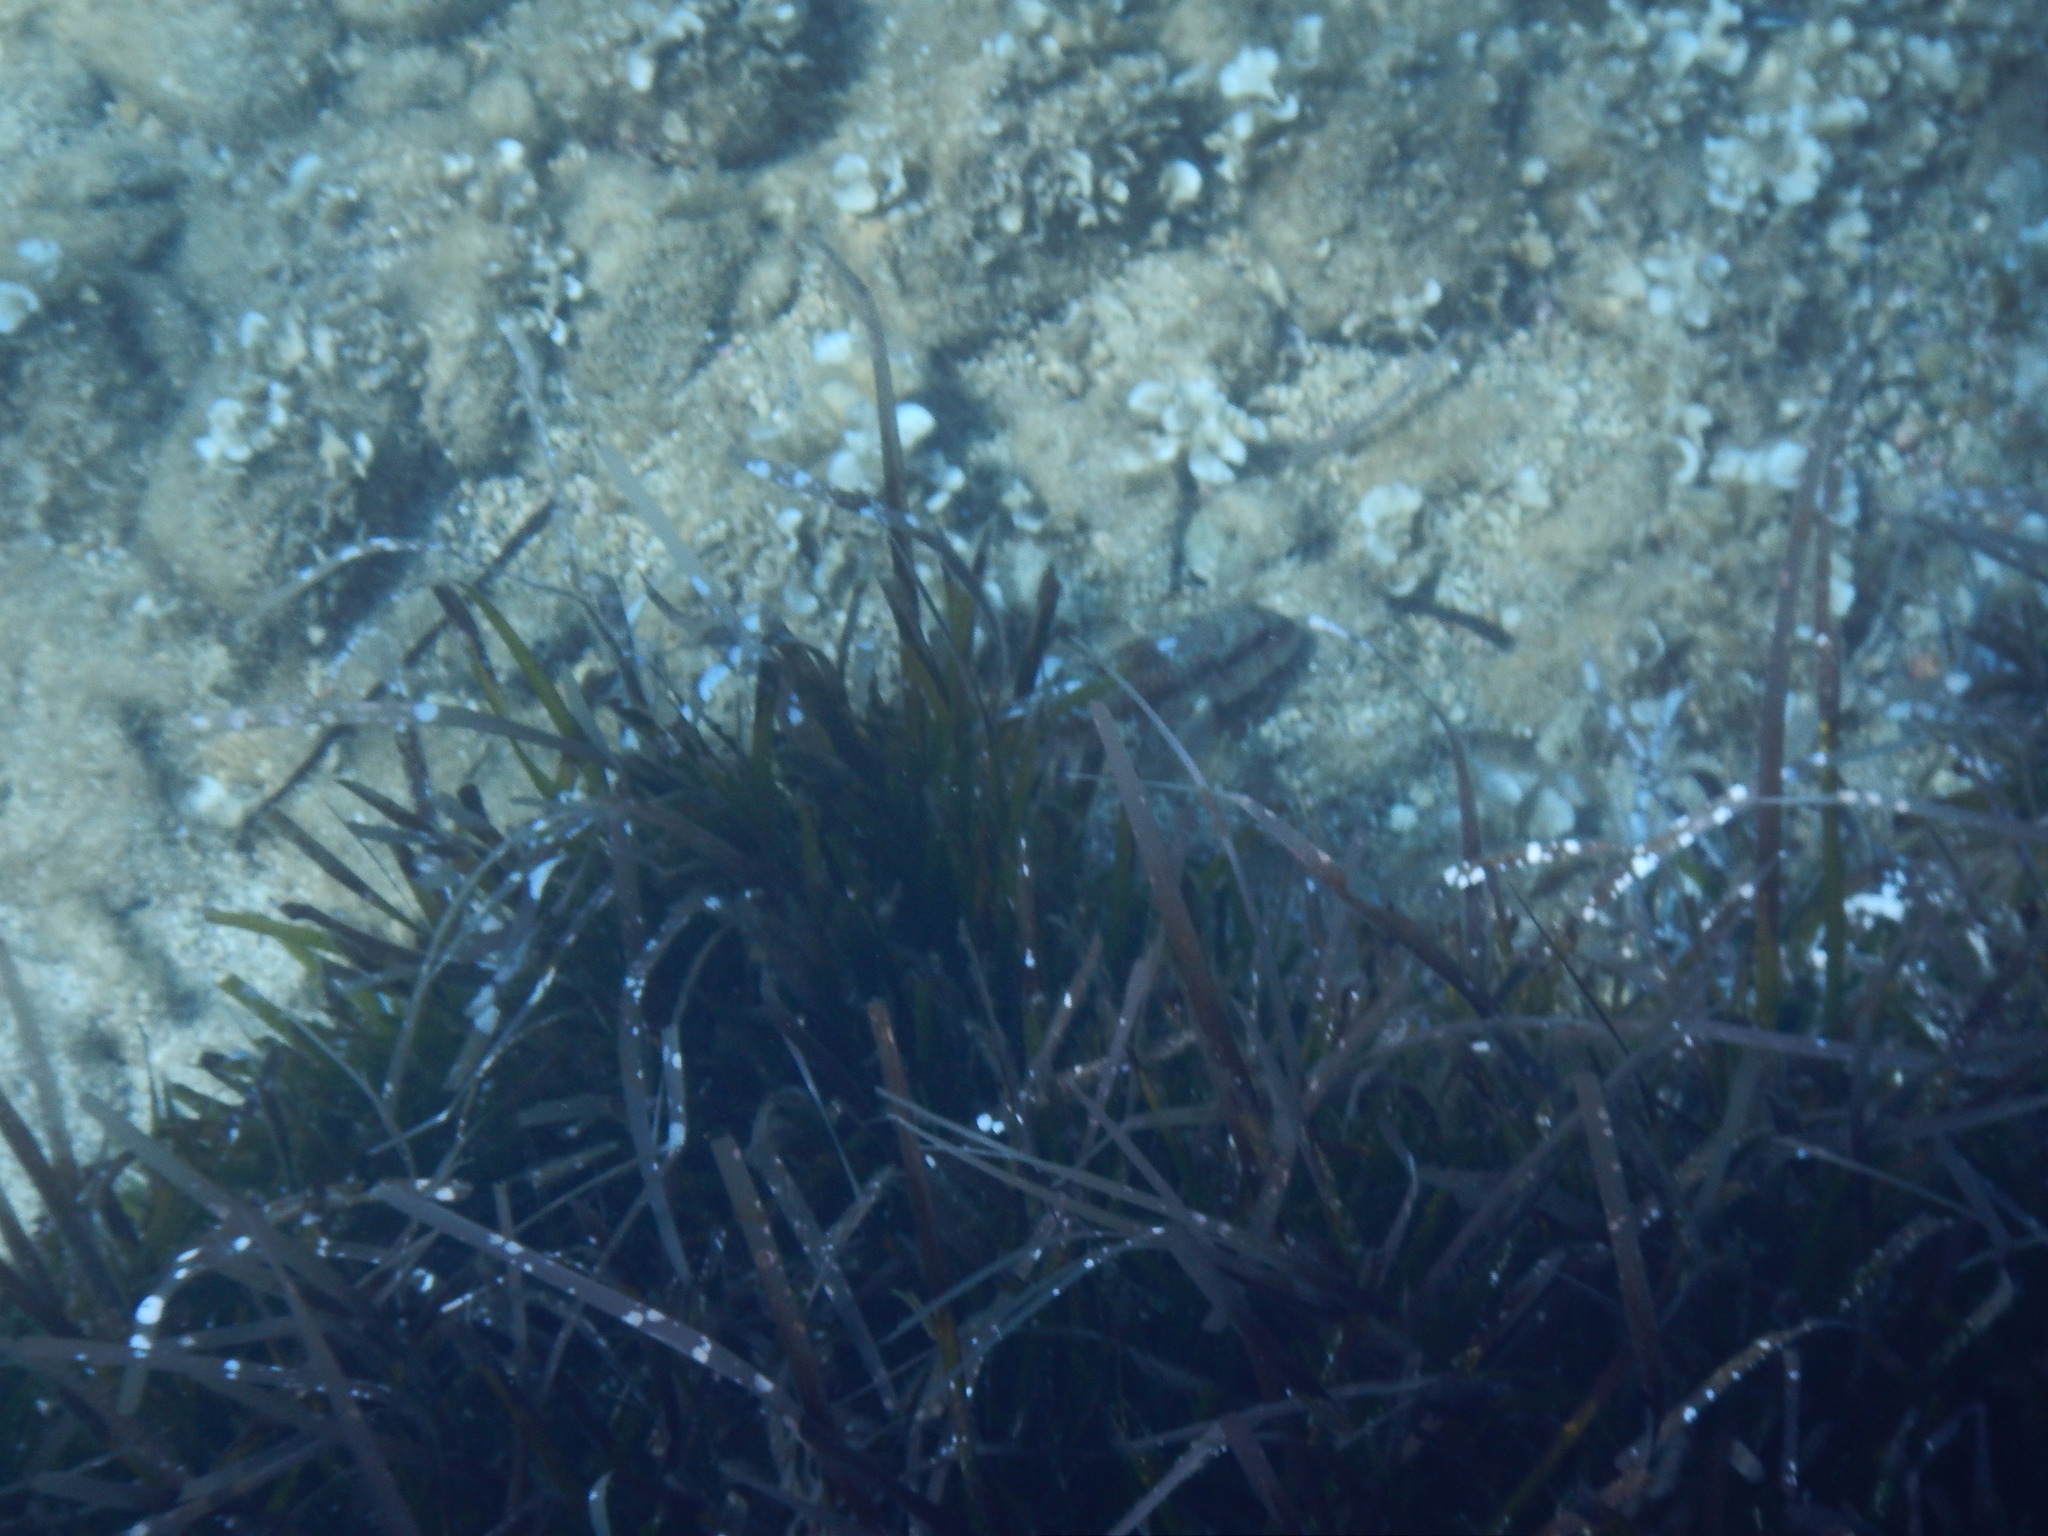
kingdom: Animalia
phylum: Chordata
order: Perciformes
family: Mullidae
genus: Mullus
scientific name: Mullus surmuletus
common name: Red mullet
